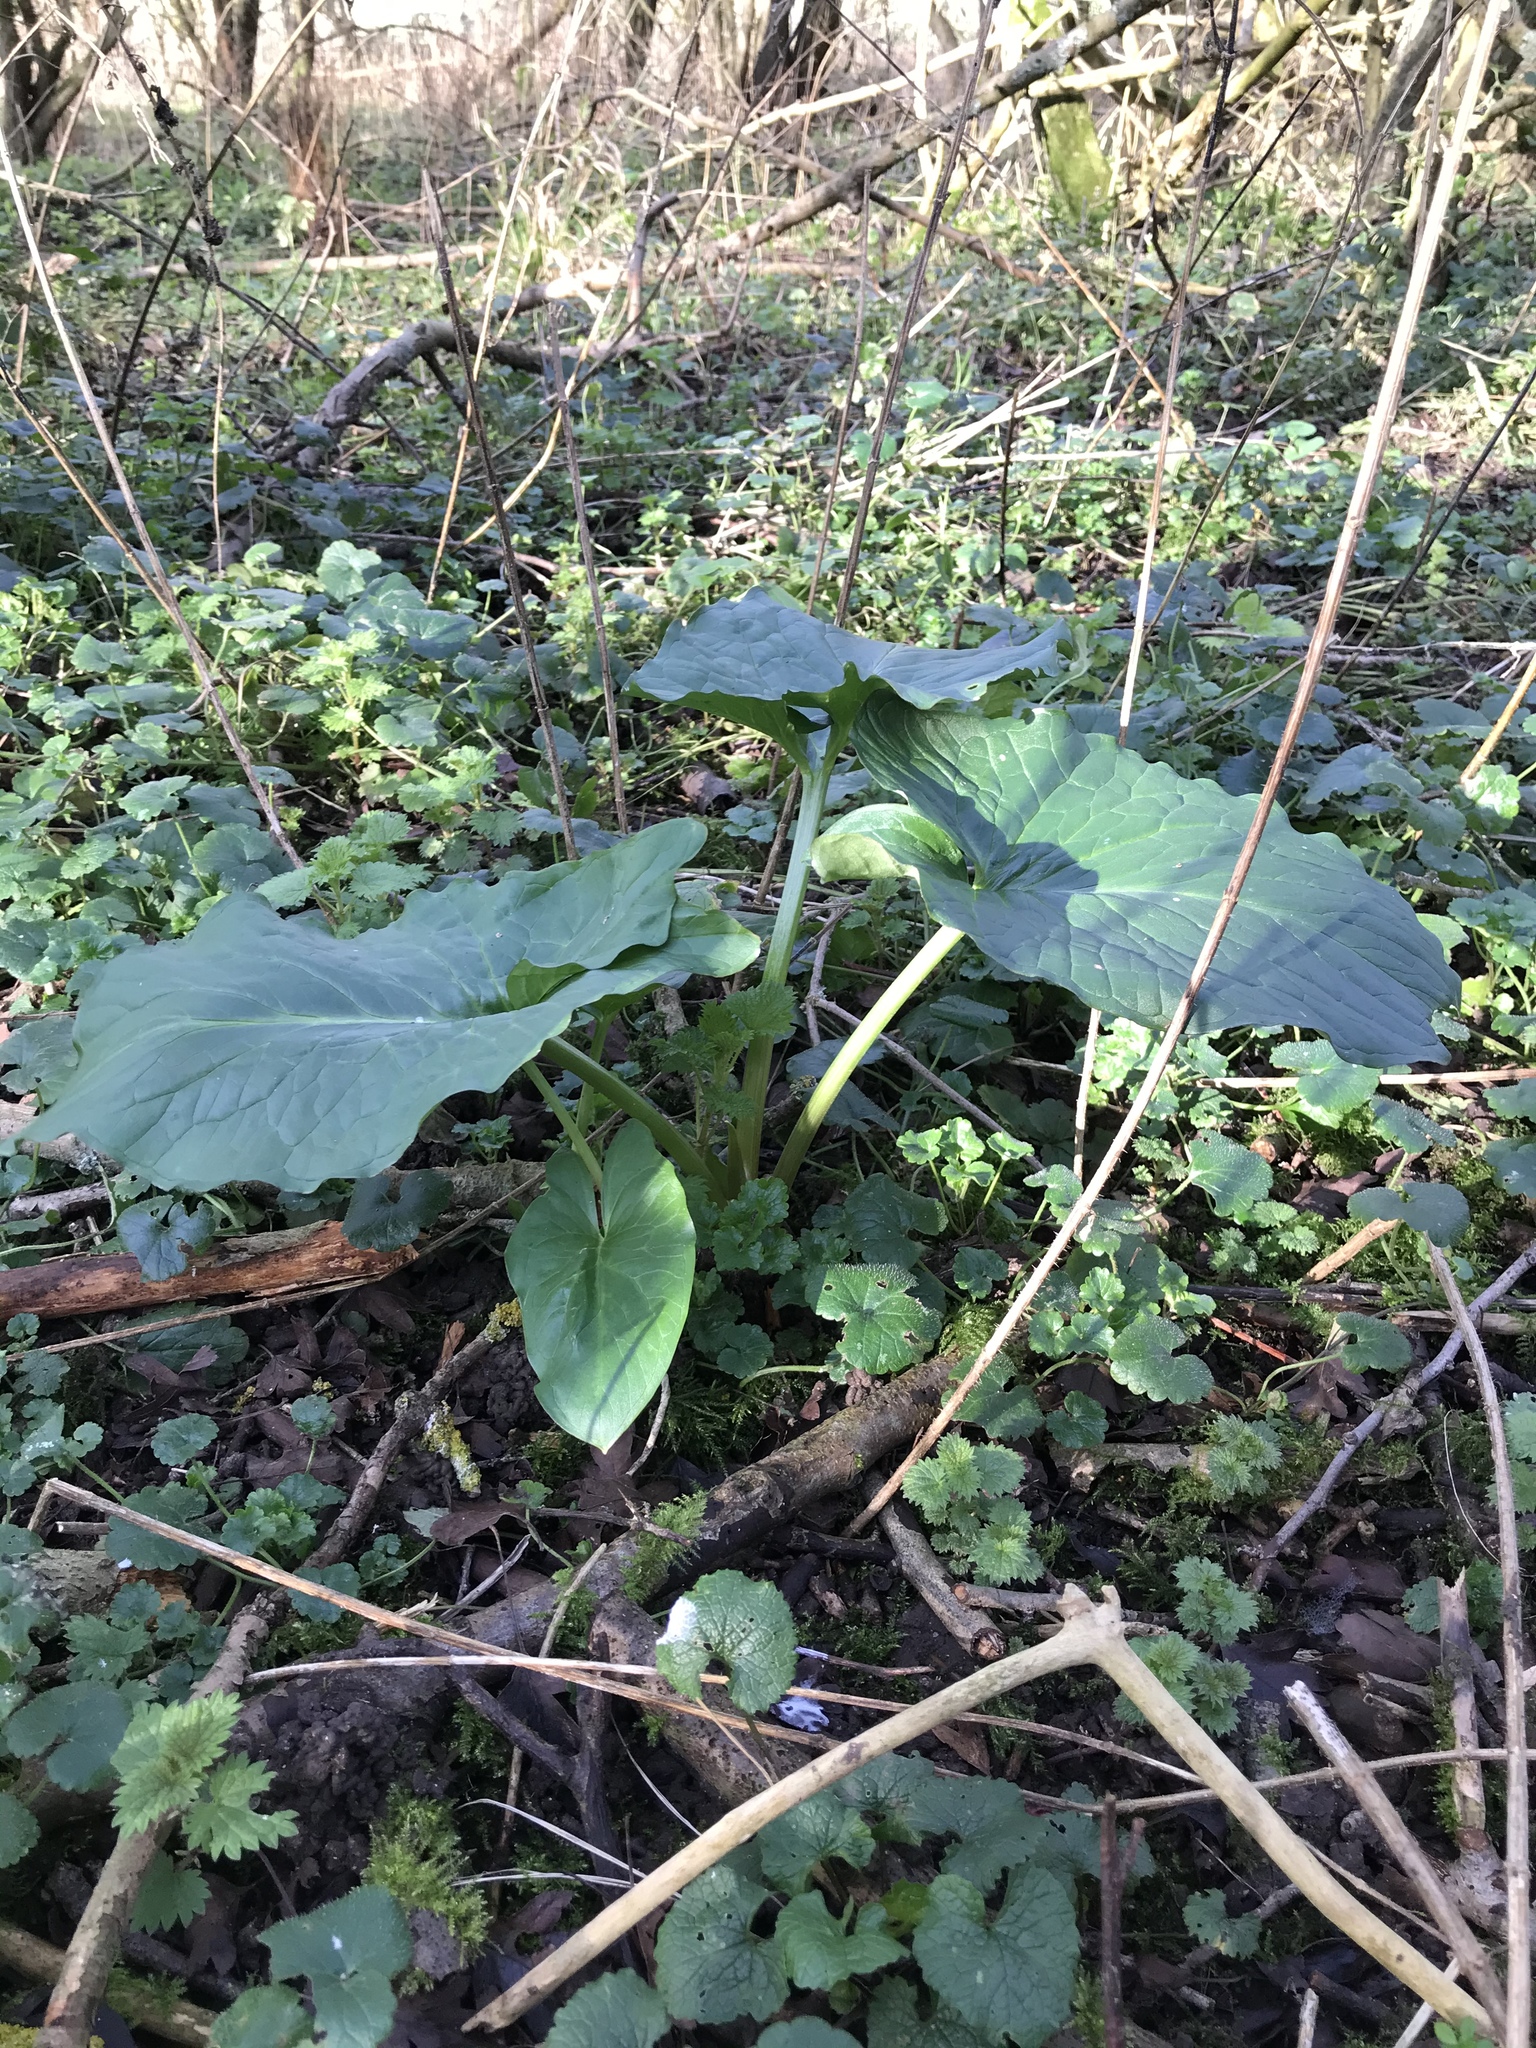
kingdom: Plantae
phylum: Tracheophyta
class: Liliopsida
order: Alismatales
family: Araceae
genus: Arum
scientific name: Arum maculatum
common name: Lords-and-ladies
